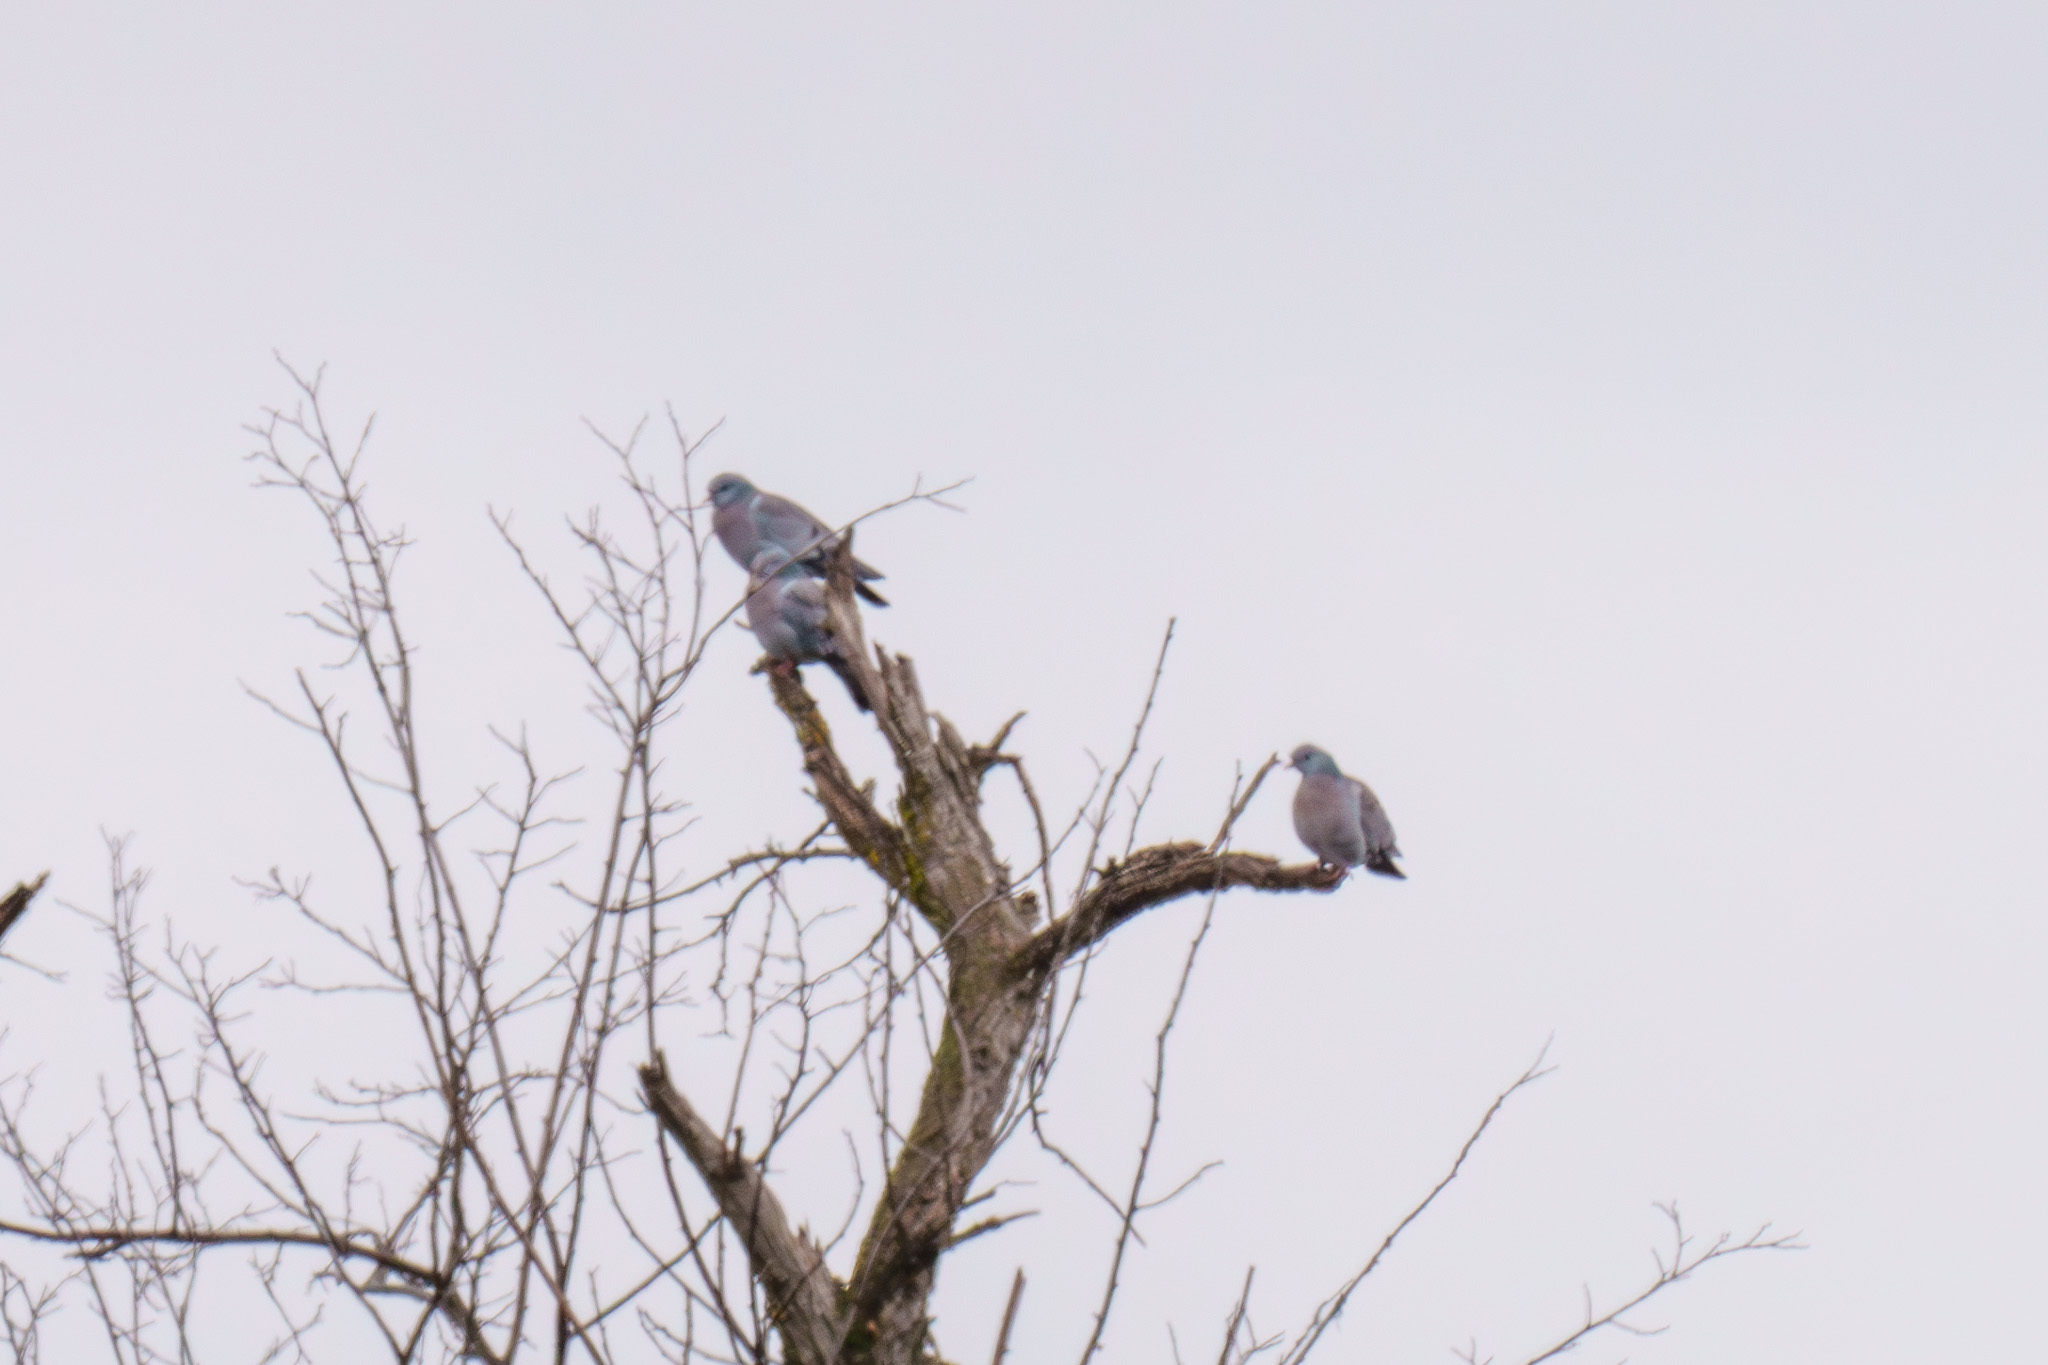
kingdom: Animalia
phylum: Chordata
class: Aves
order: Columbiformes
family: Columbidae
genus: Columba
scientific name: Columba oenas
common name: Stock dove
